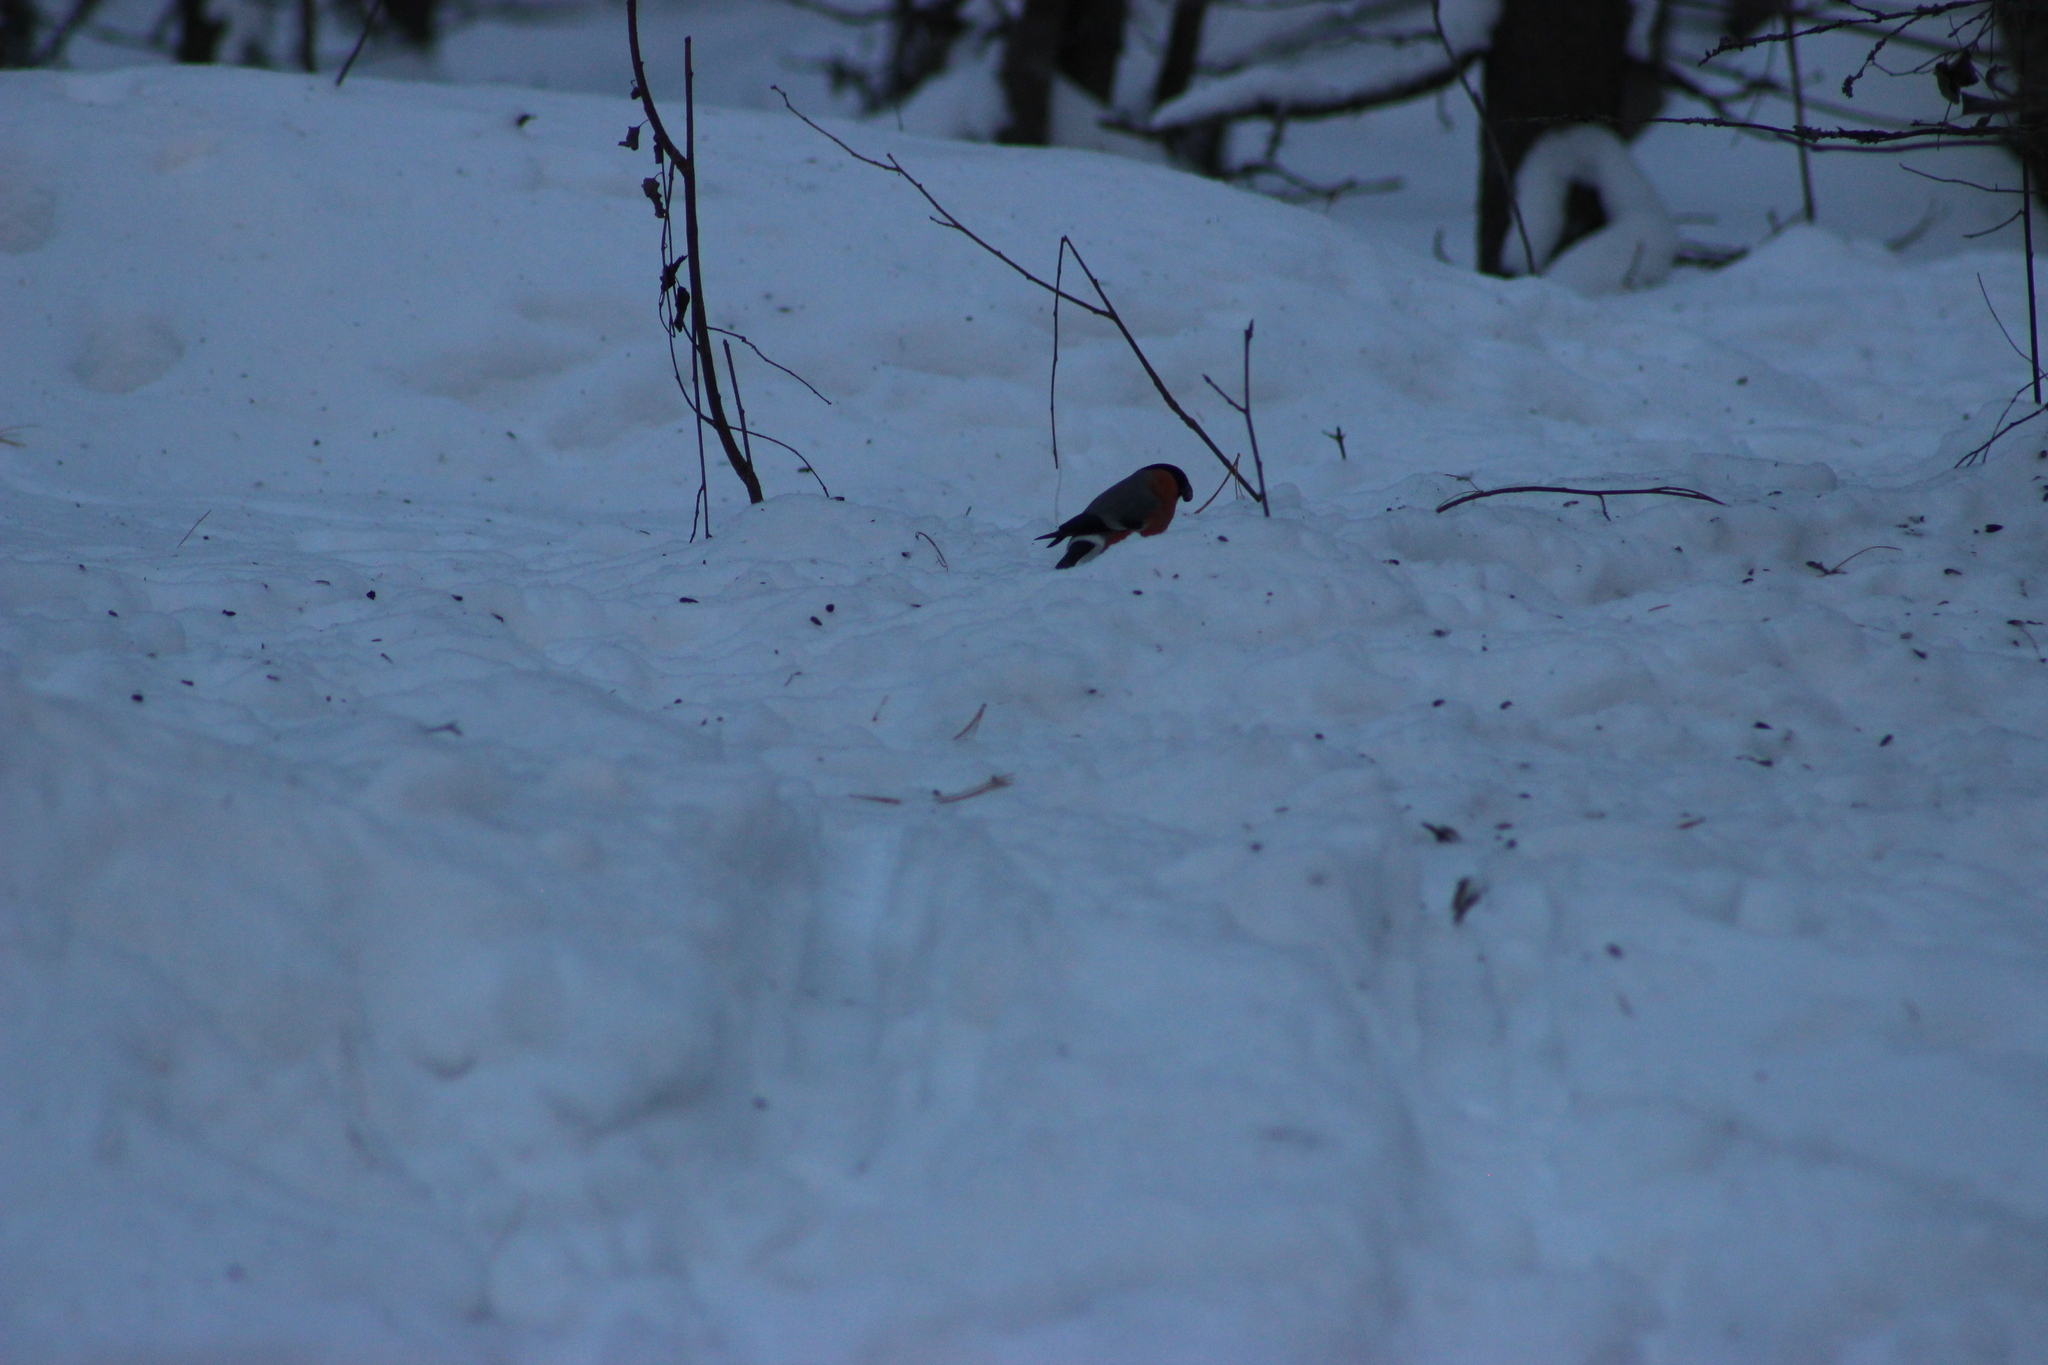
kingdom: Animalia
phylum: Chordata
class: Aves
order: Passeriformes
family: Fringillidae
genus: Pyrrhula
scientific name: Pyrrhula pyrrhula
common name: Eurasian bullfinch
